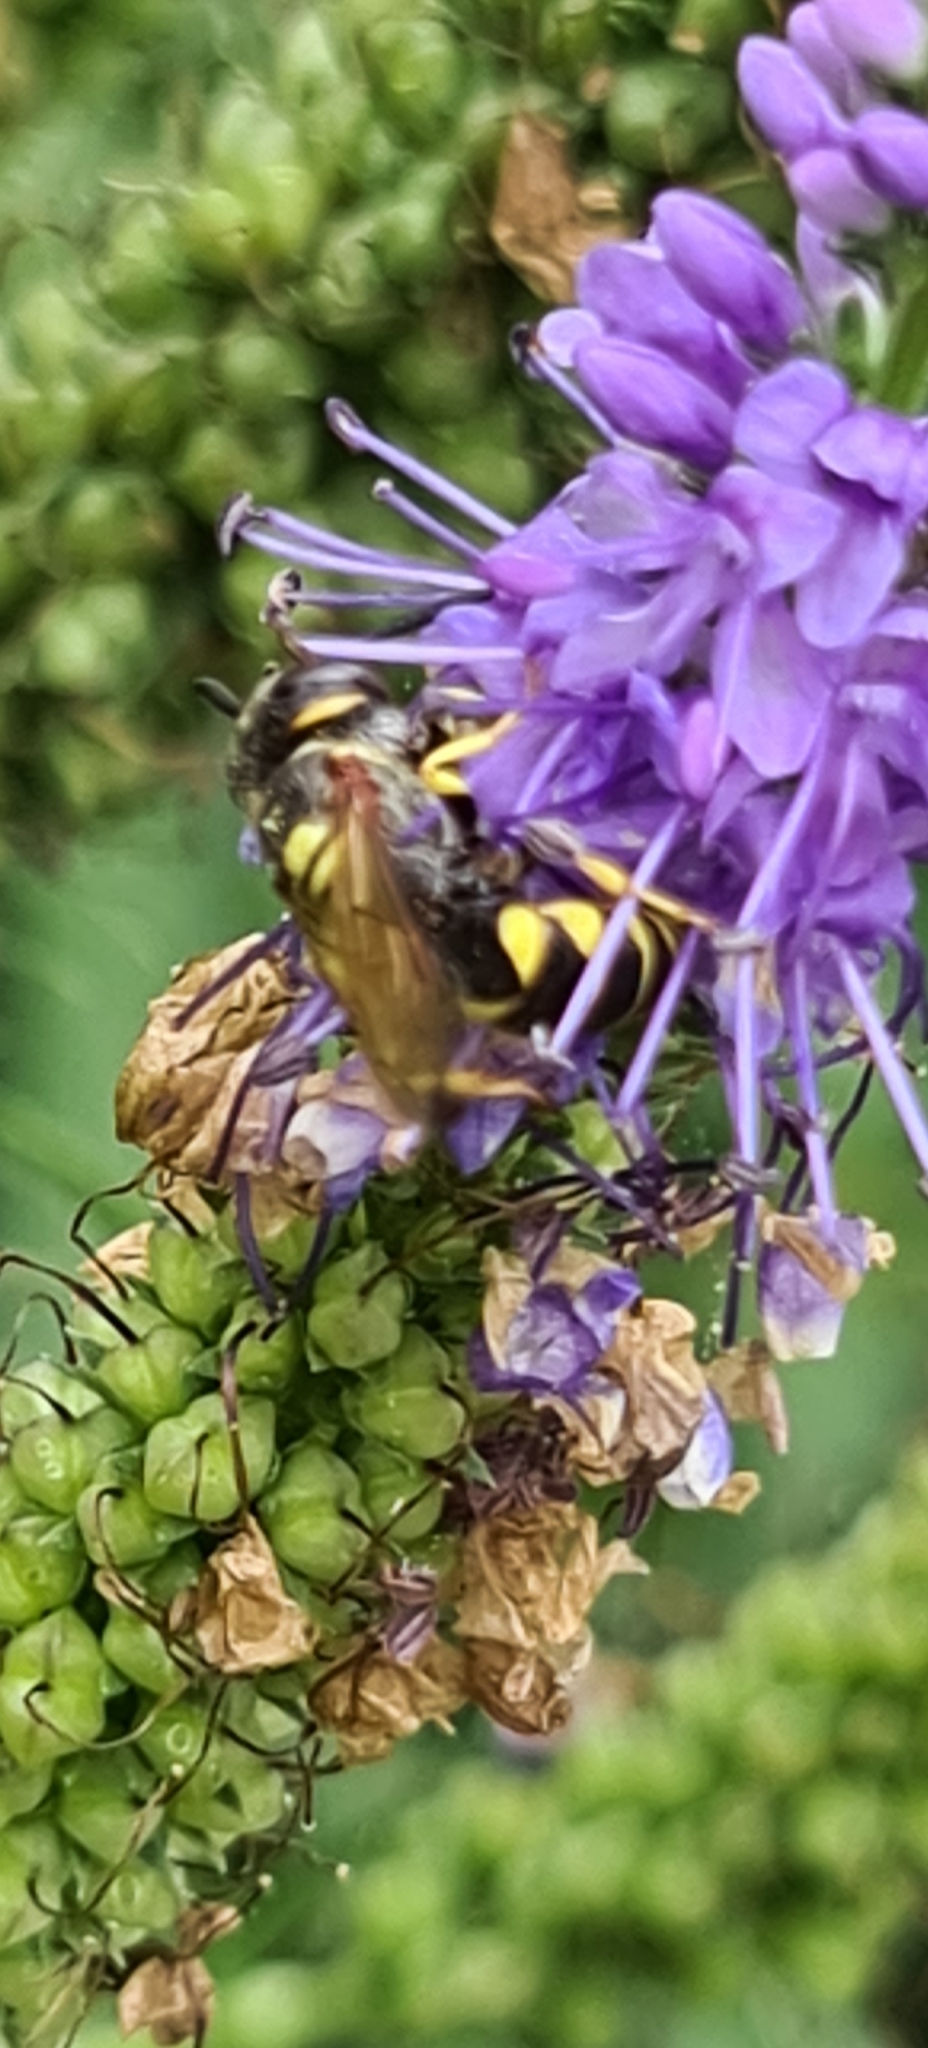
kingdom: Animalia
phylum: Arthropoda
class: Insecta
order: Hymenoptera
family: Crabronidae
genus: Philanthus
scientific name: Philanthus triangulum
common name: Bee wolf
